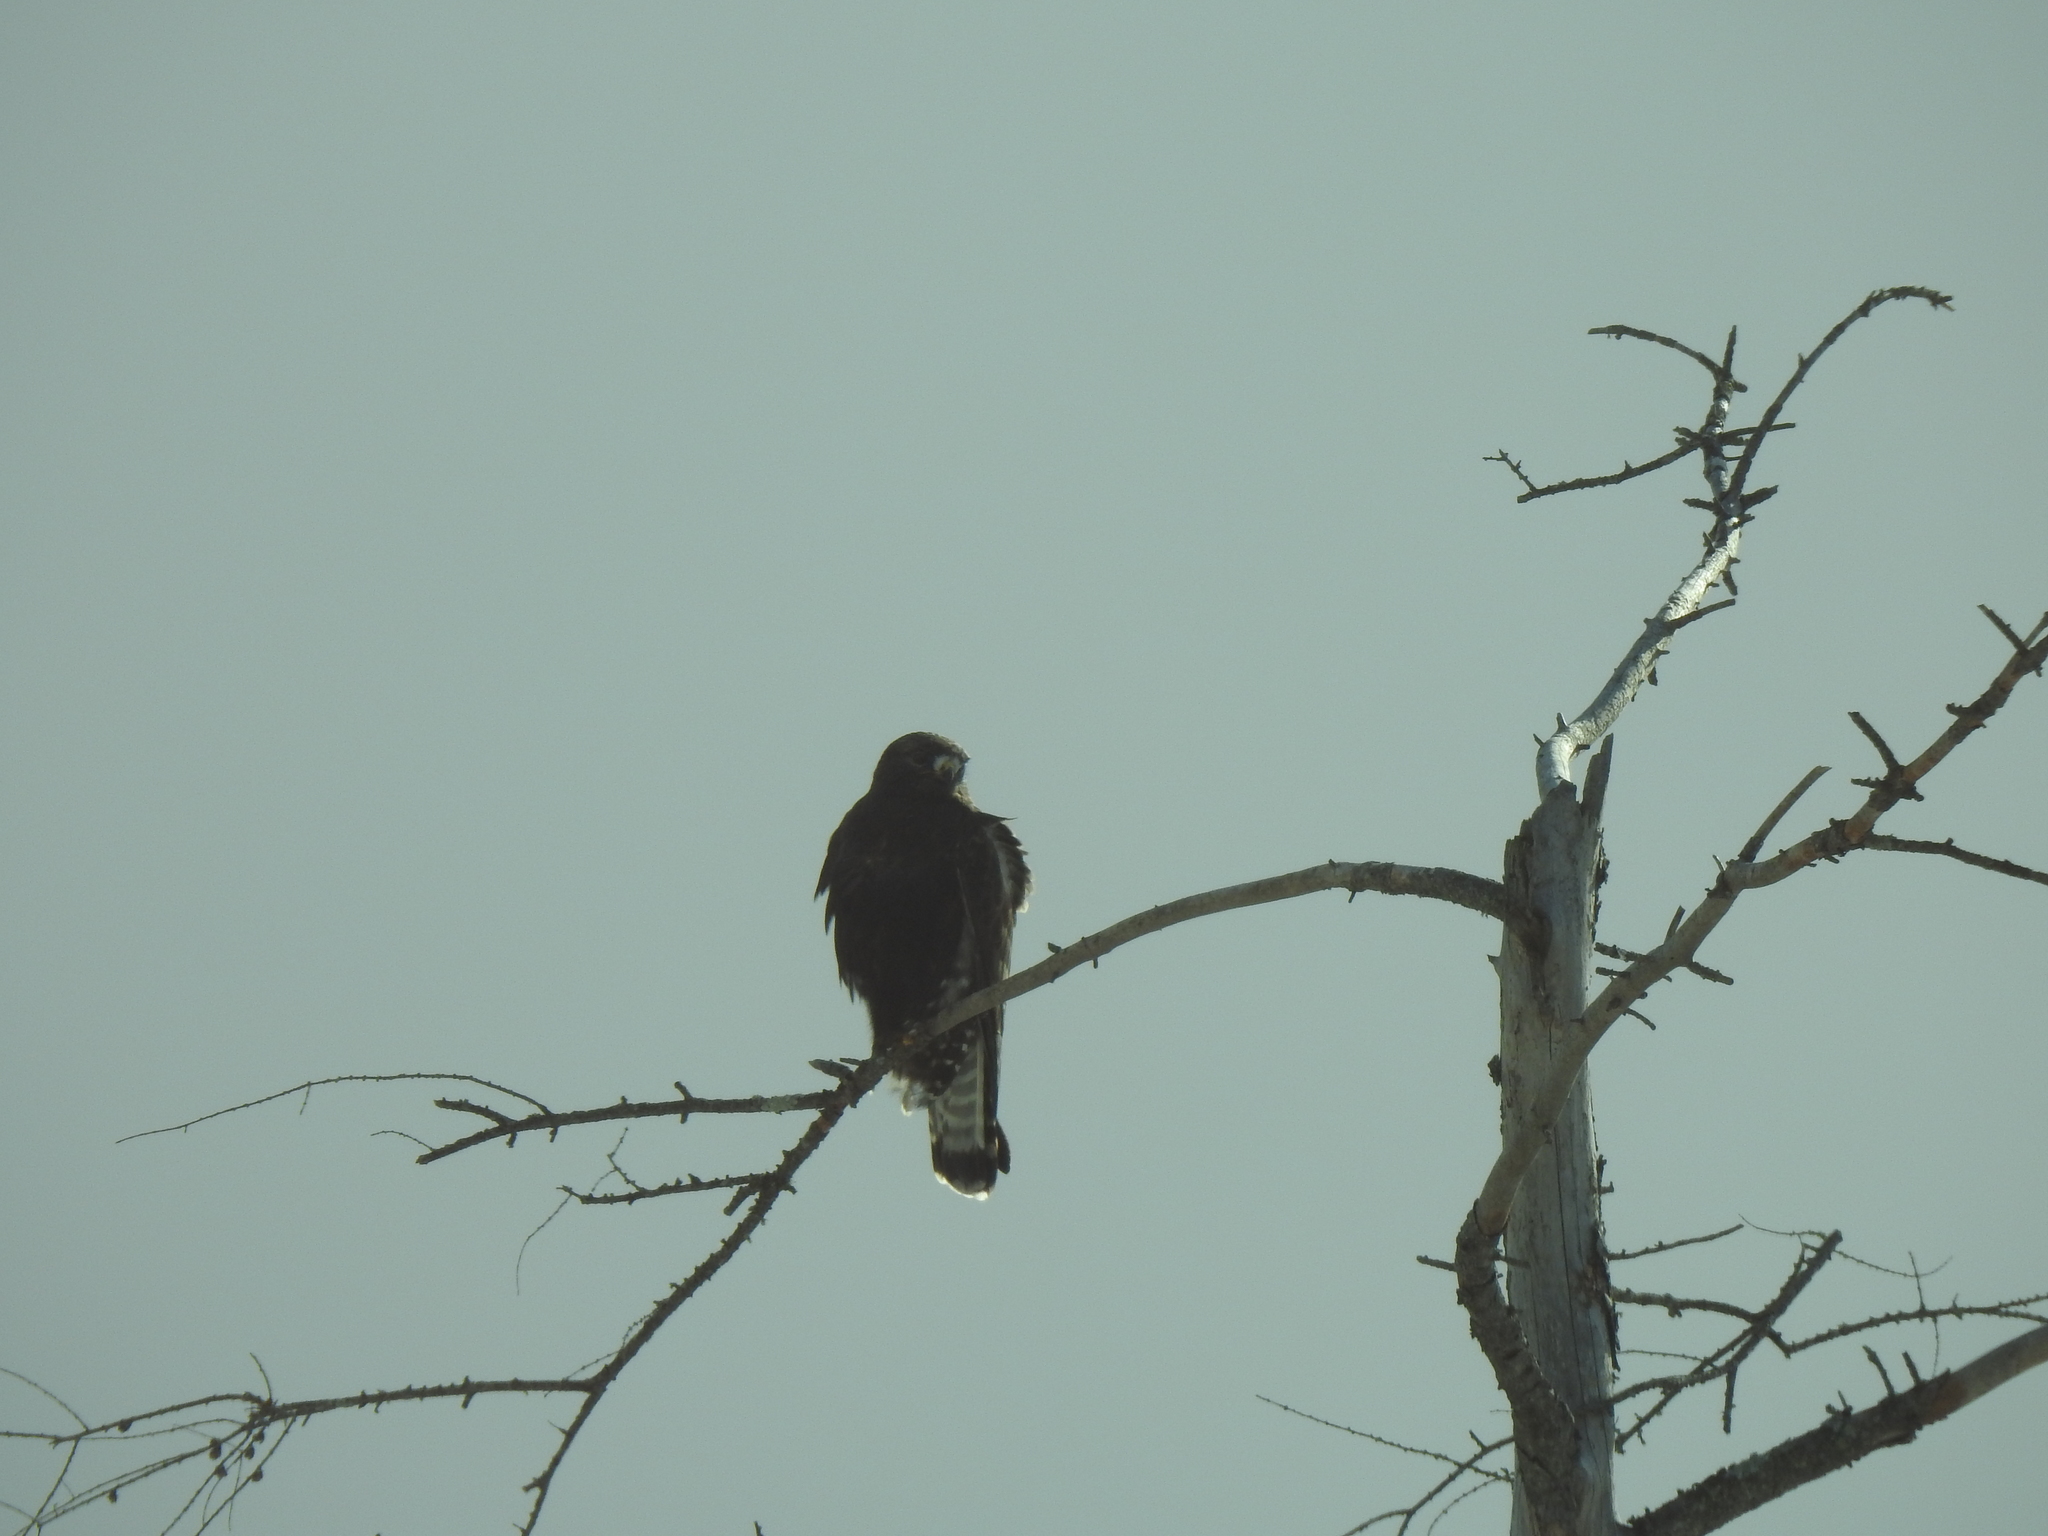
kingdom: Animalia
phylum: Chordata
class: Aves
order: Accipitriformes
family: Accipitridae
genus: Buteo
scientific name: Buteo lagopus
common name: Rough-legged buzzard
